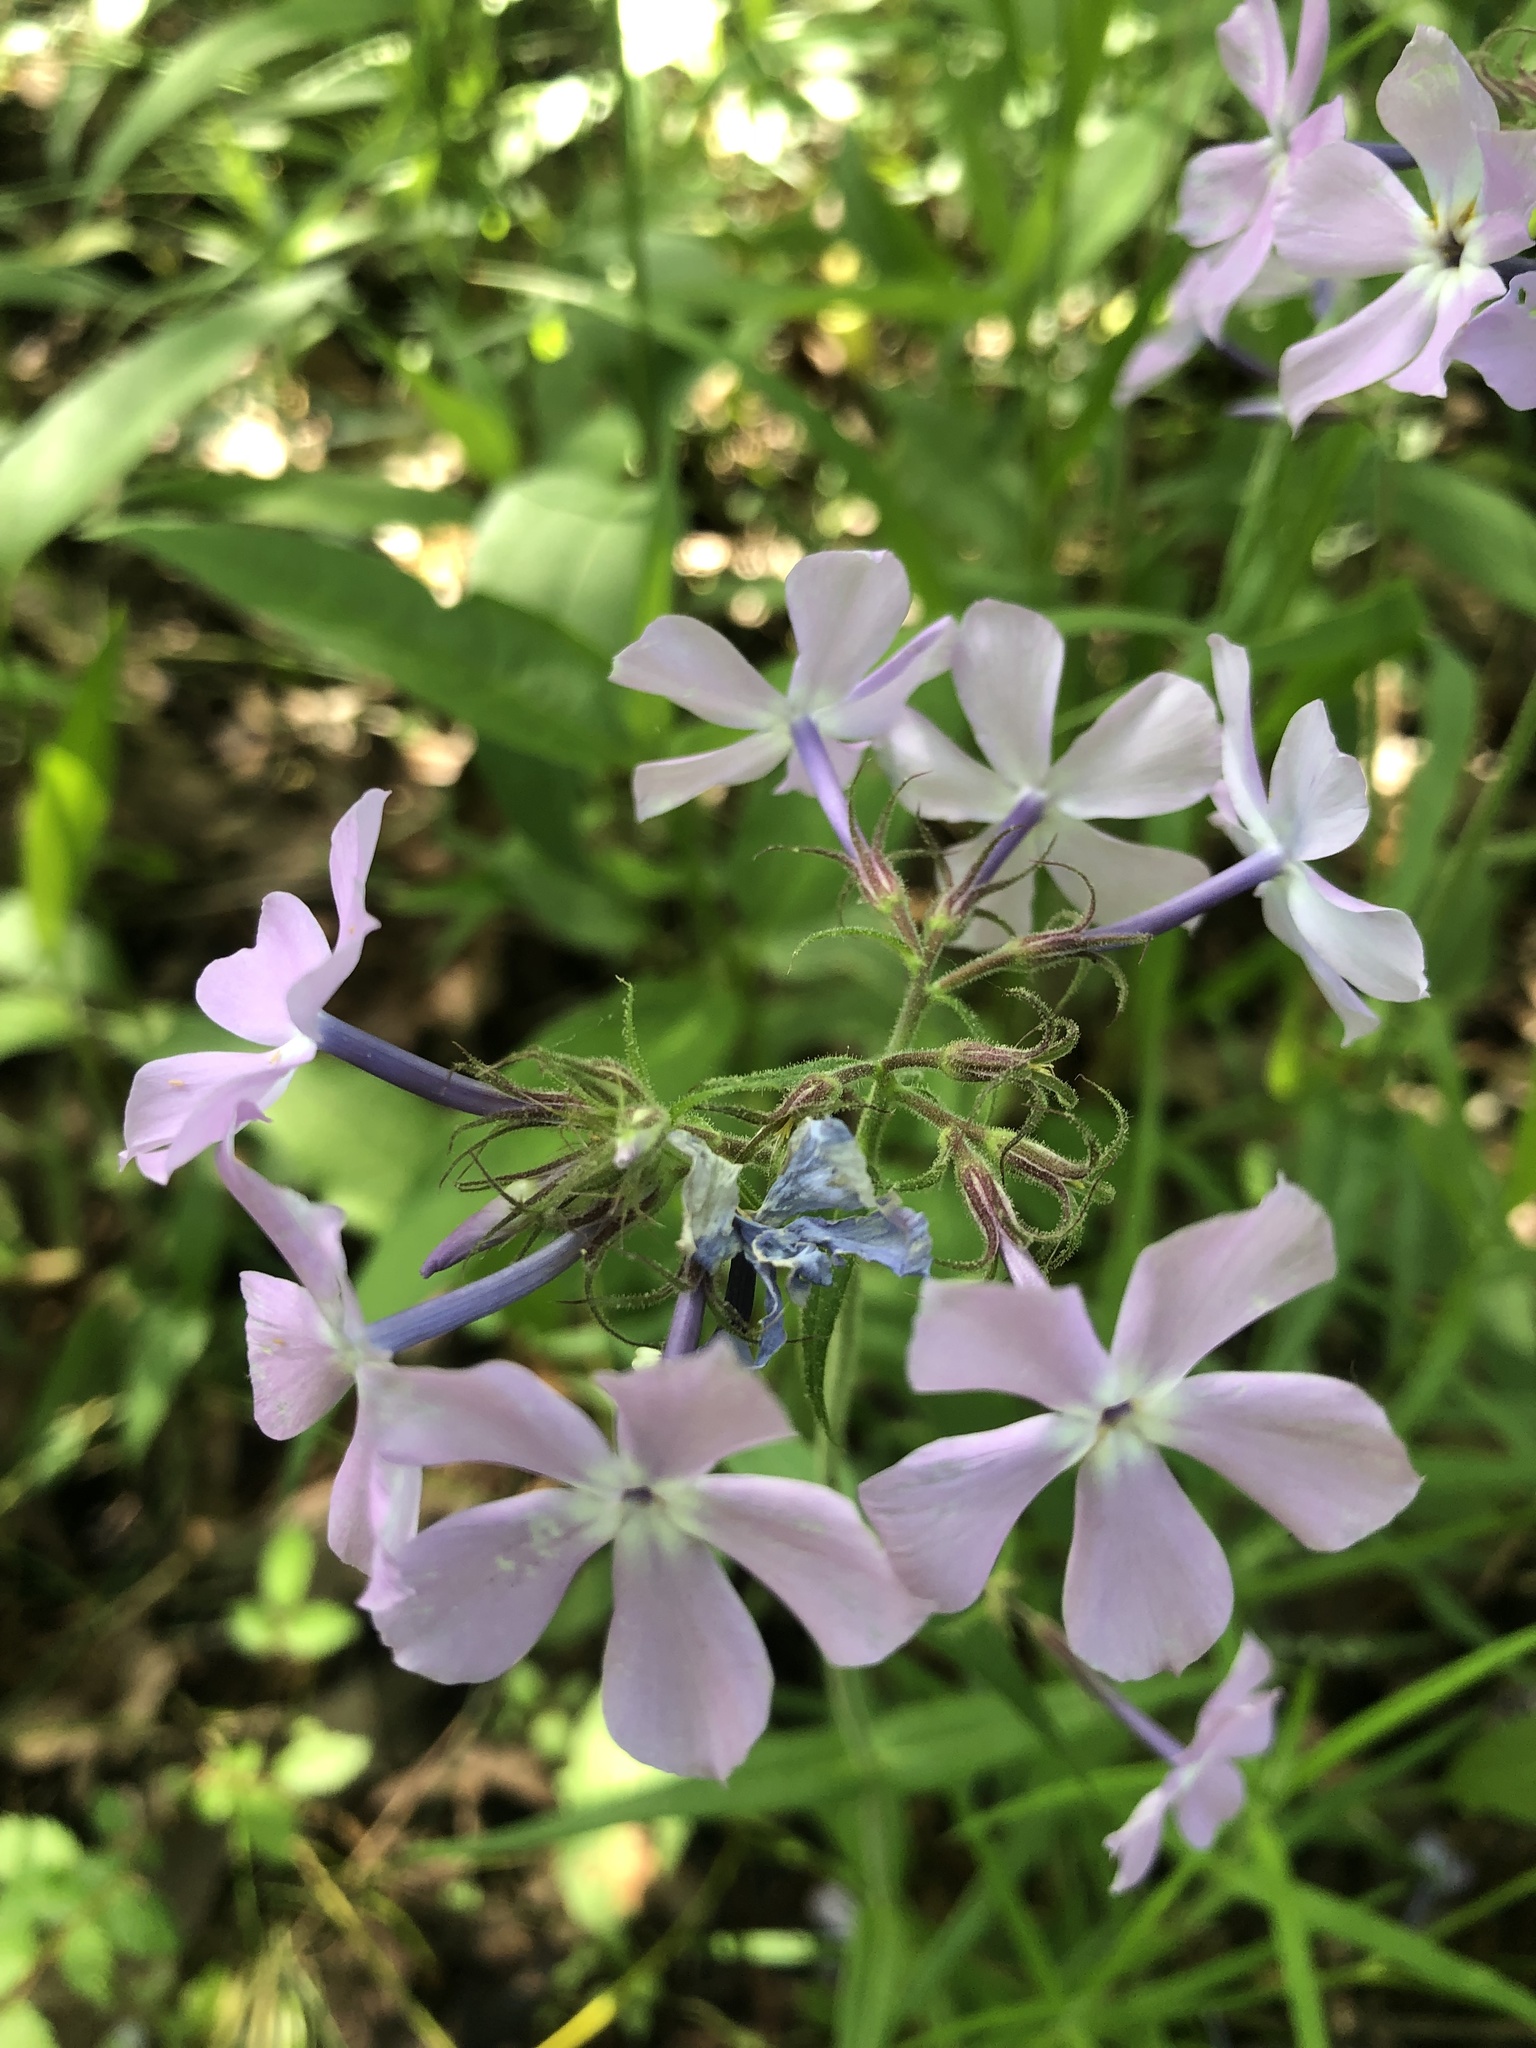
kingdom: Plantae
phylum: Tracheophyta
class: Magnoliopsida
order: Ericales
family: Polemoniaceae
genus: Phlox
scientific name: Phlox pilosa
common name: Prairie phlox
